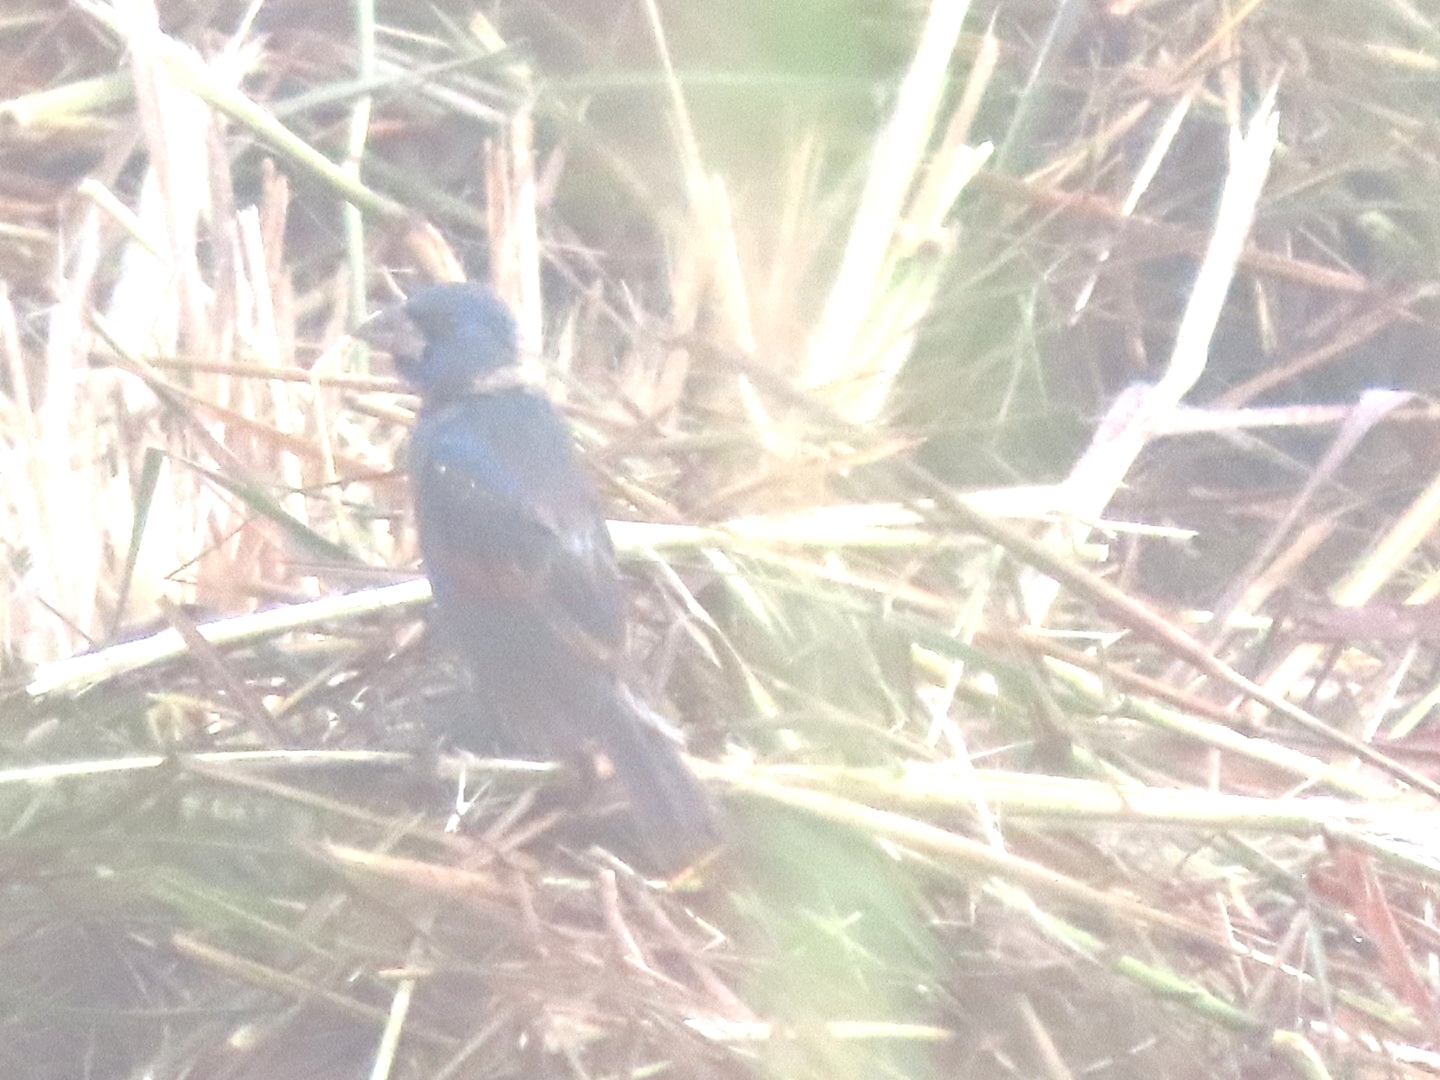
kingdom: Animalia
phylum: Chordata
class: Aves
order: Passeriformes
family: Cardinalidae
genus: Passerina
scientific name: Passerina caerulea
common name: Blue grosbeak
